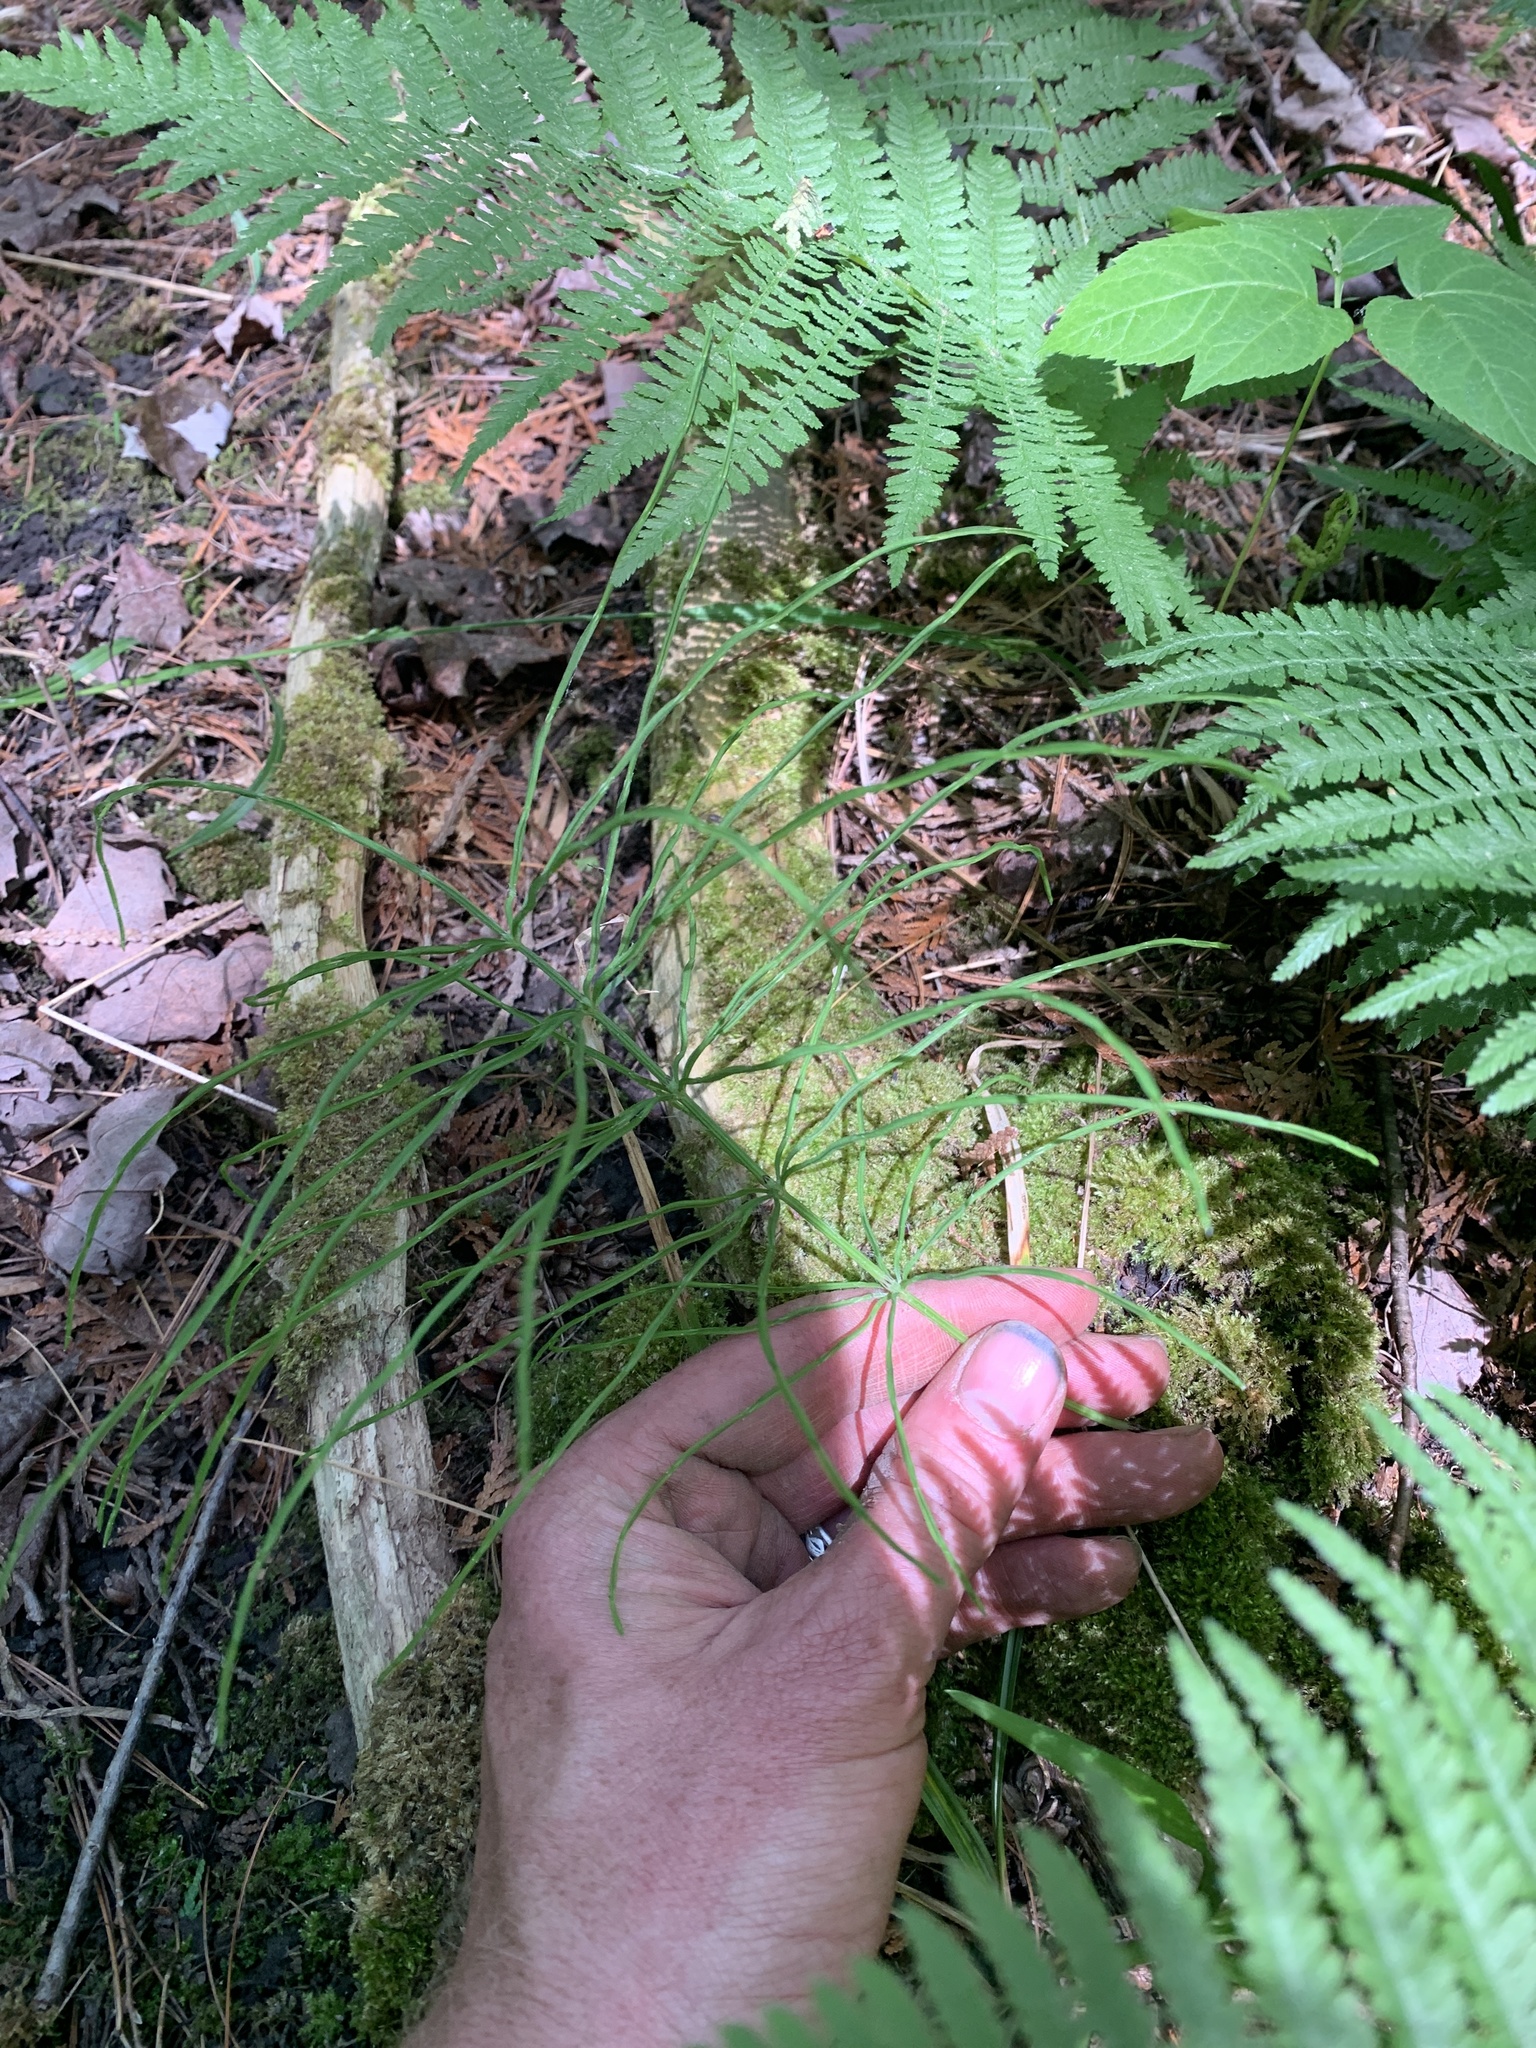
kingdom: Plantae
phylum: Tracheophyta
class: Polypodiopsida
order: Equisetales
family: Equisetaceae
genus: Equisetum
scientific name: Equisetum arvense
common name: Field horsetail
